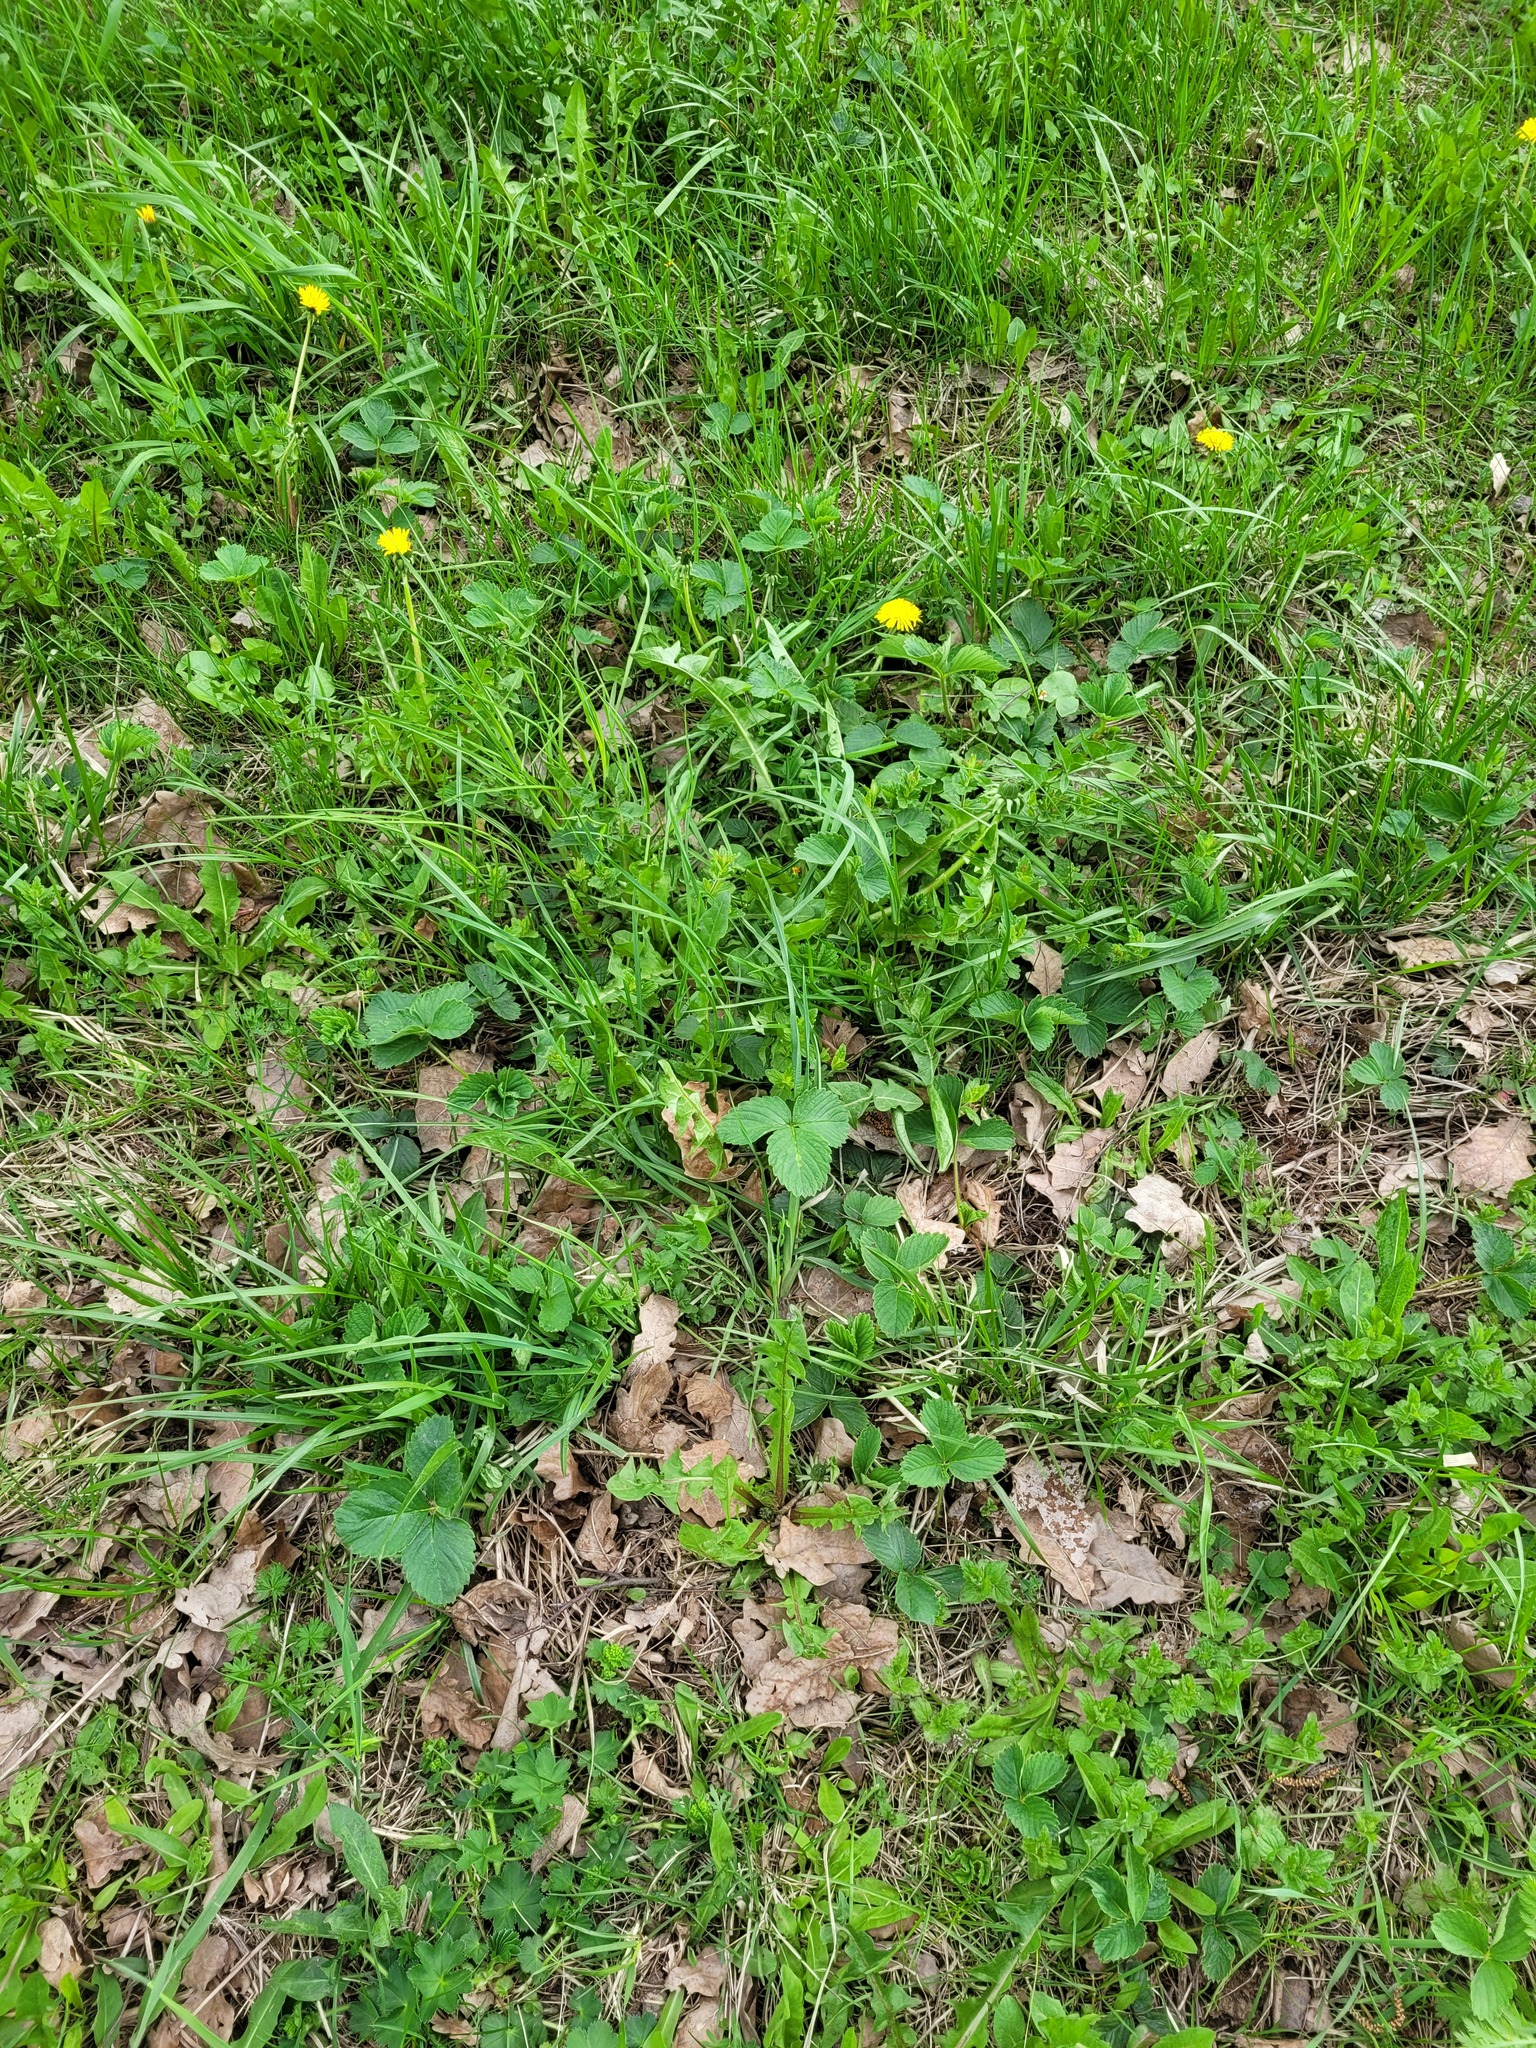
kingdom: Plantae
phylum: Tracheophyta
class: Magnoliopsida
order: Rosales
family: Rosaceae
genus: Fragaria
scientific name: Fragaria ananassa
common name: Garden strawberry
